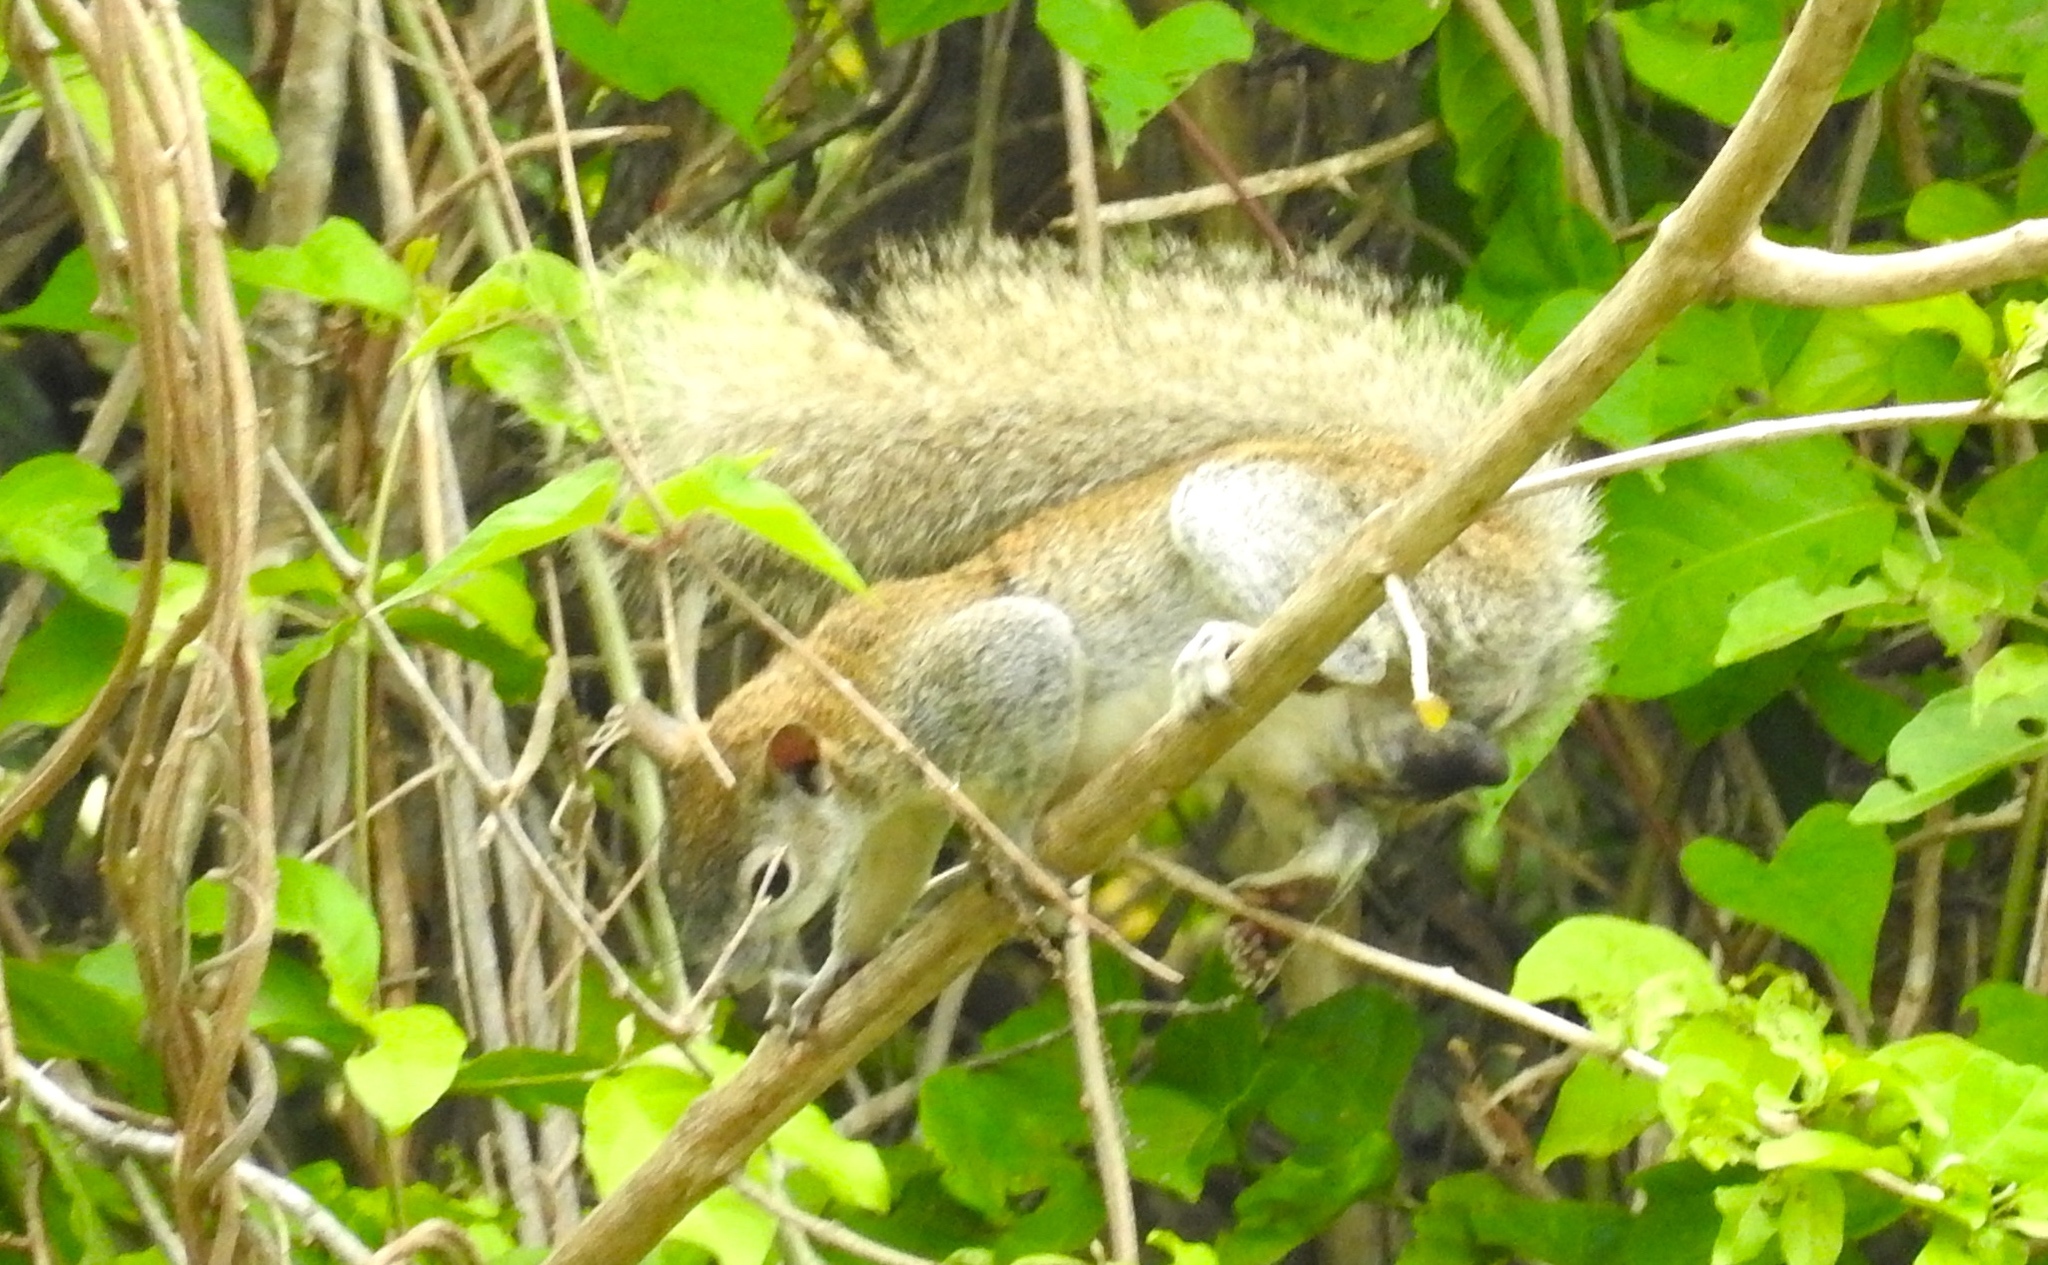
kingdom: Animalia
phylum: Chordata
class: Mammalia
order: Rodentia
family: Sciuridae
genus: Sciurus
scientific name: Sciurus colliaei
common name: Collie's squirrel
